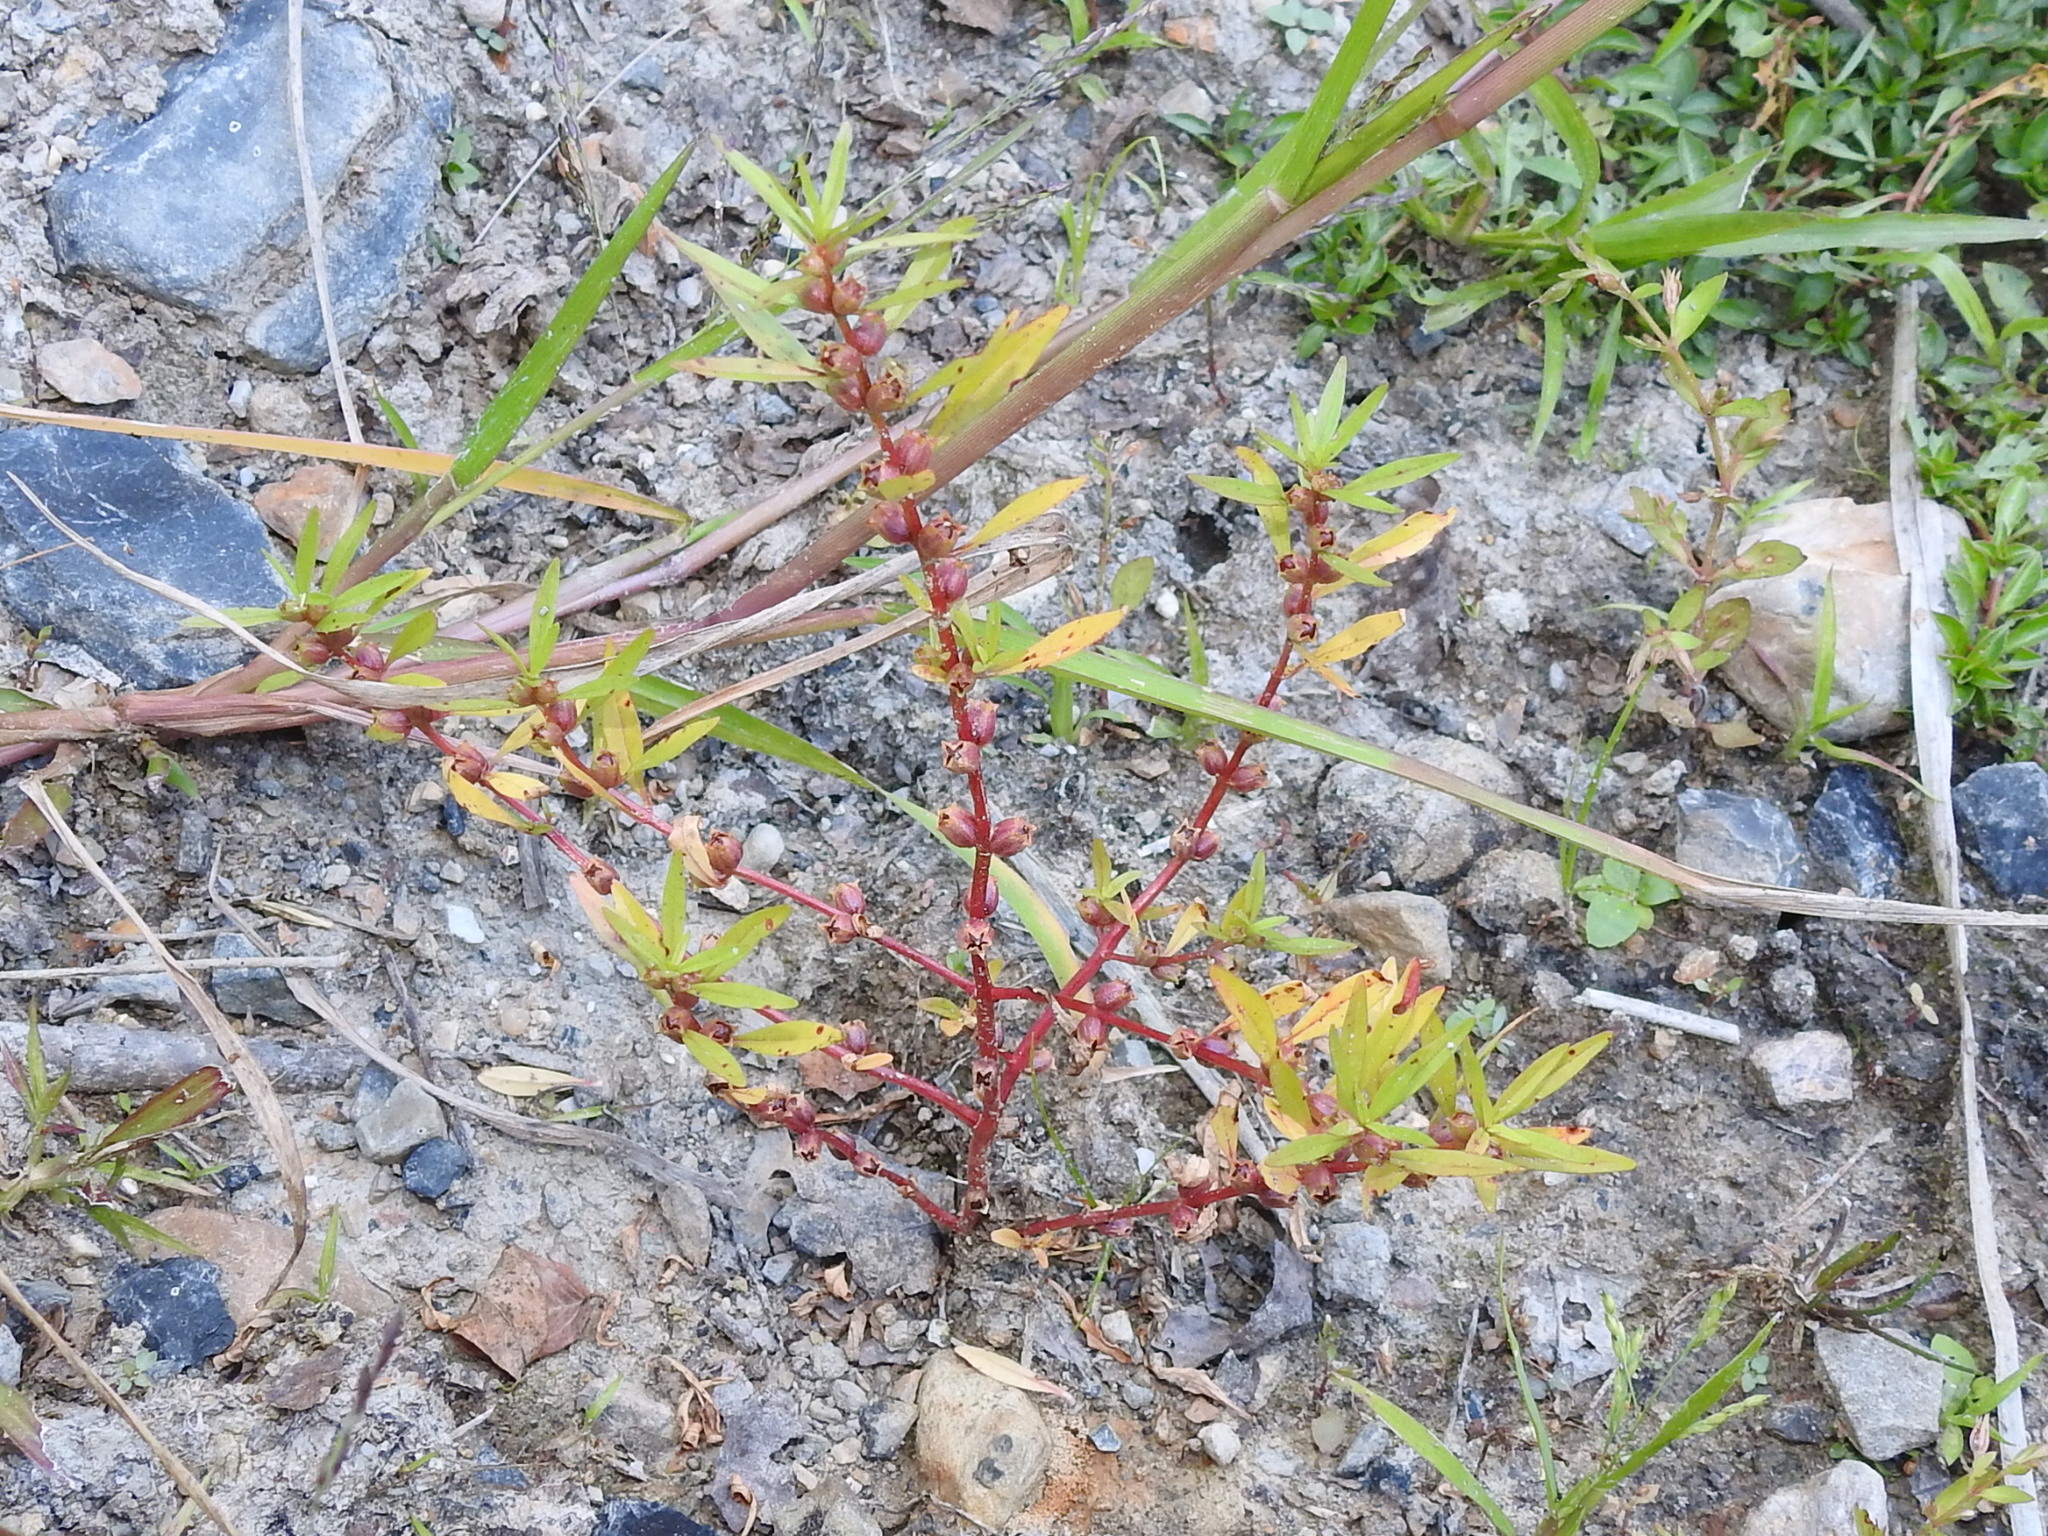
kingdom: Plantae
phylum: Tracheophyta
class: Magnoliopsida
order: Myrtales
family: Lythraceae
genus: Rotala
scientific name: Rotala ramosior
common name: Lowland rotala
